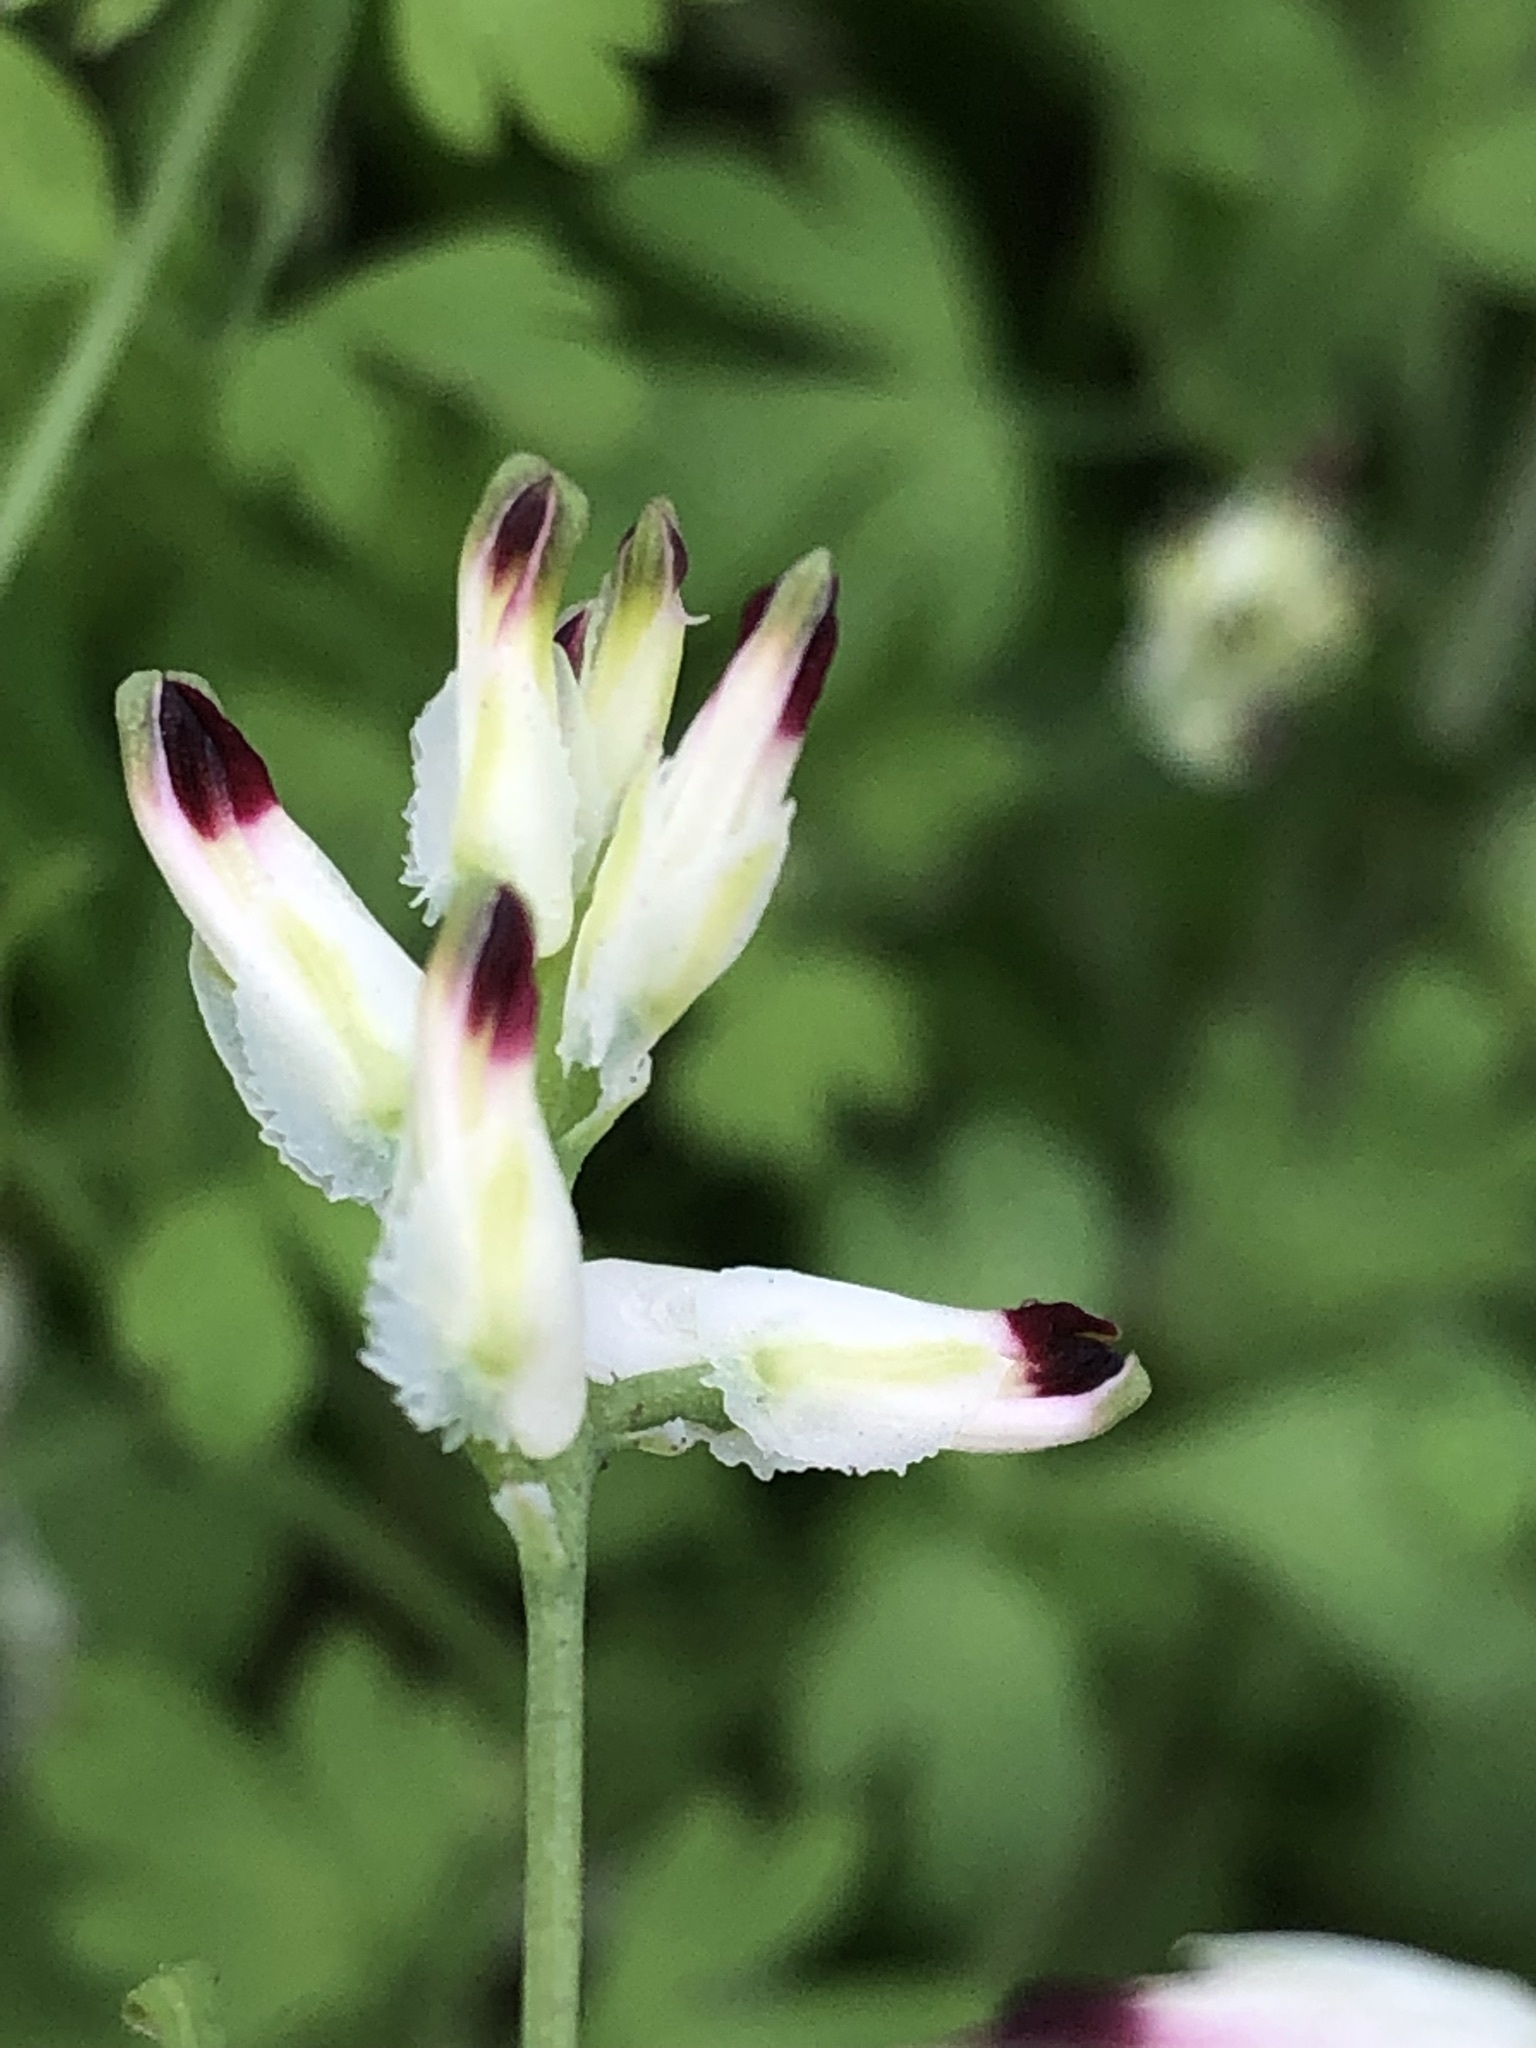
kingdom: Plantae
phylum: Tracheophyta
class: Magnoliopsida
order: Ranunculales
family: Papaveraceae
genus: Fumaria
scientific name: Fumaria capreolata
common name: White ramping-fumitory
